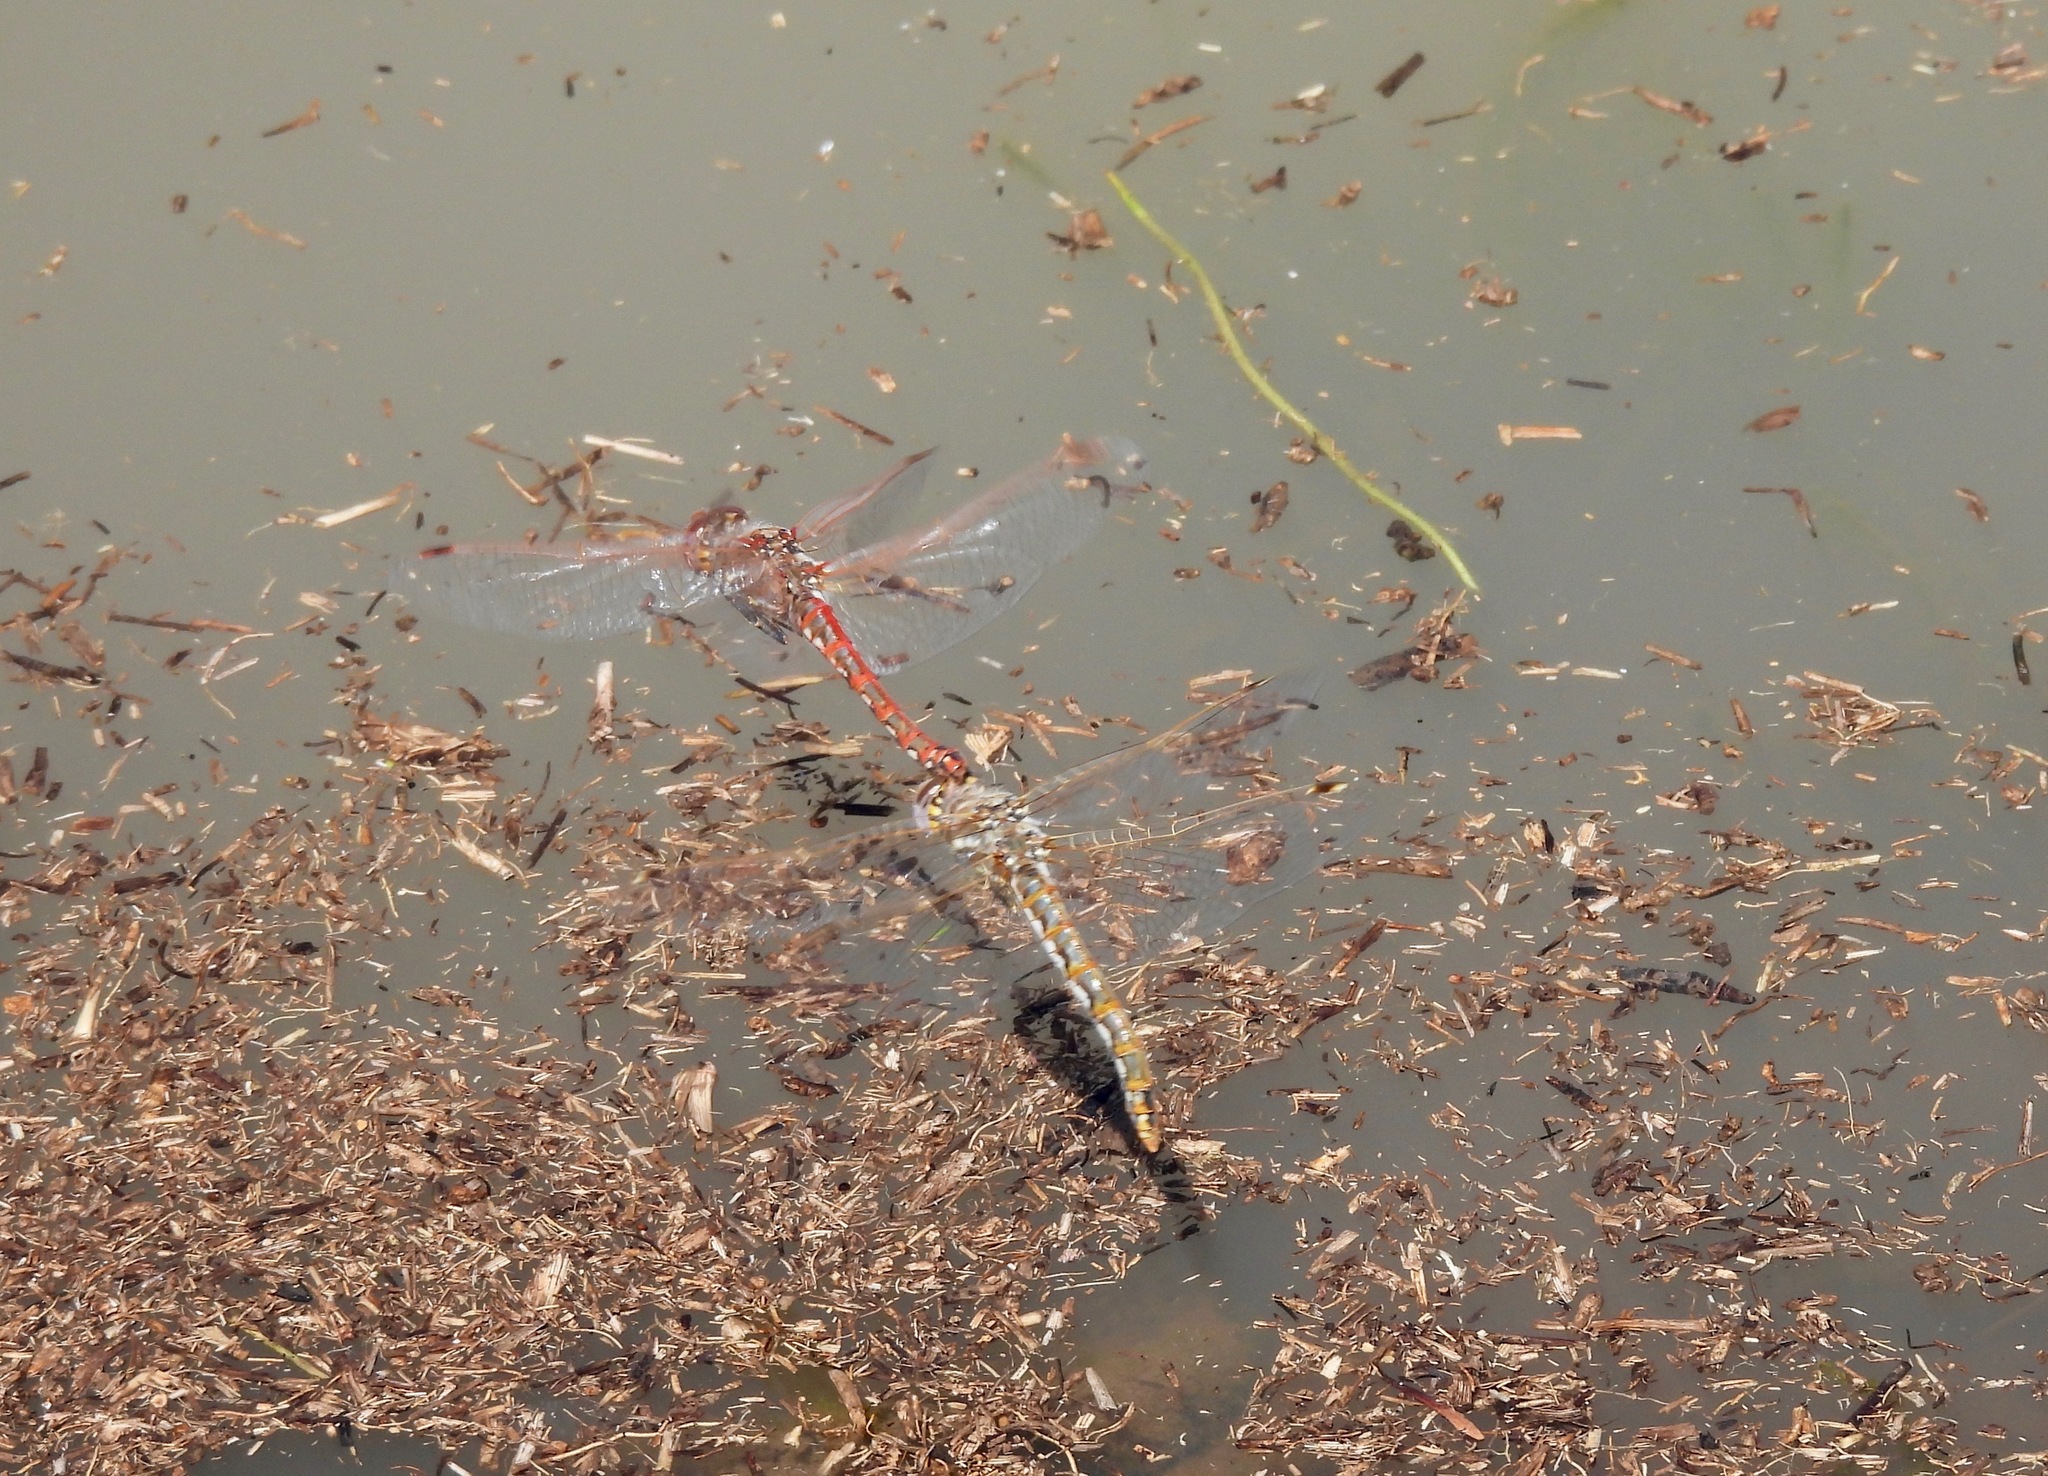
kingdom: Animalia
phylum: Arthropoda
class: Insecta
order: Odonata
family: Libellulidae
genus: Sympetrum
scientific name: Sympetrum corruptum
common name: Variegated meadowhawk
